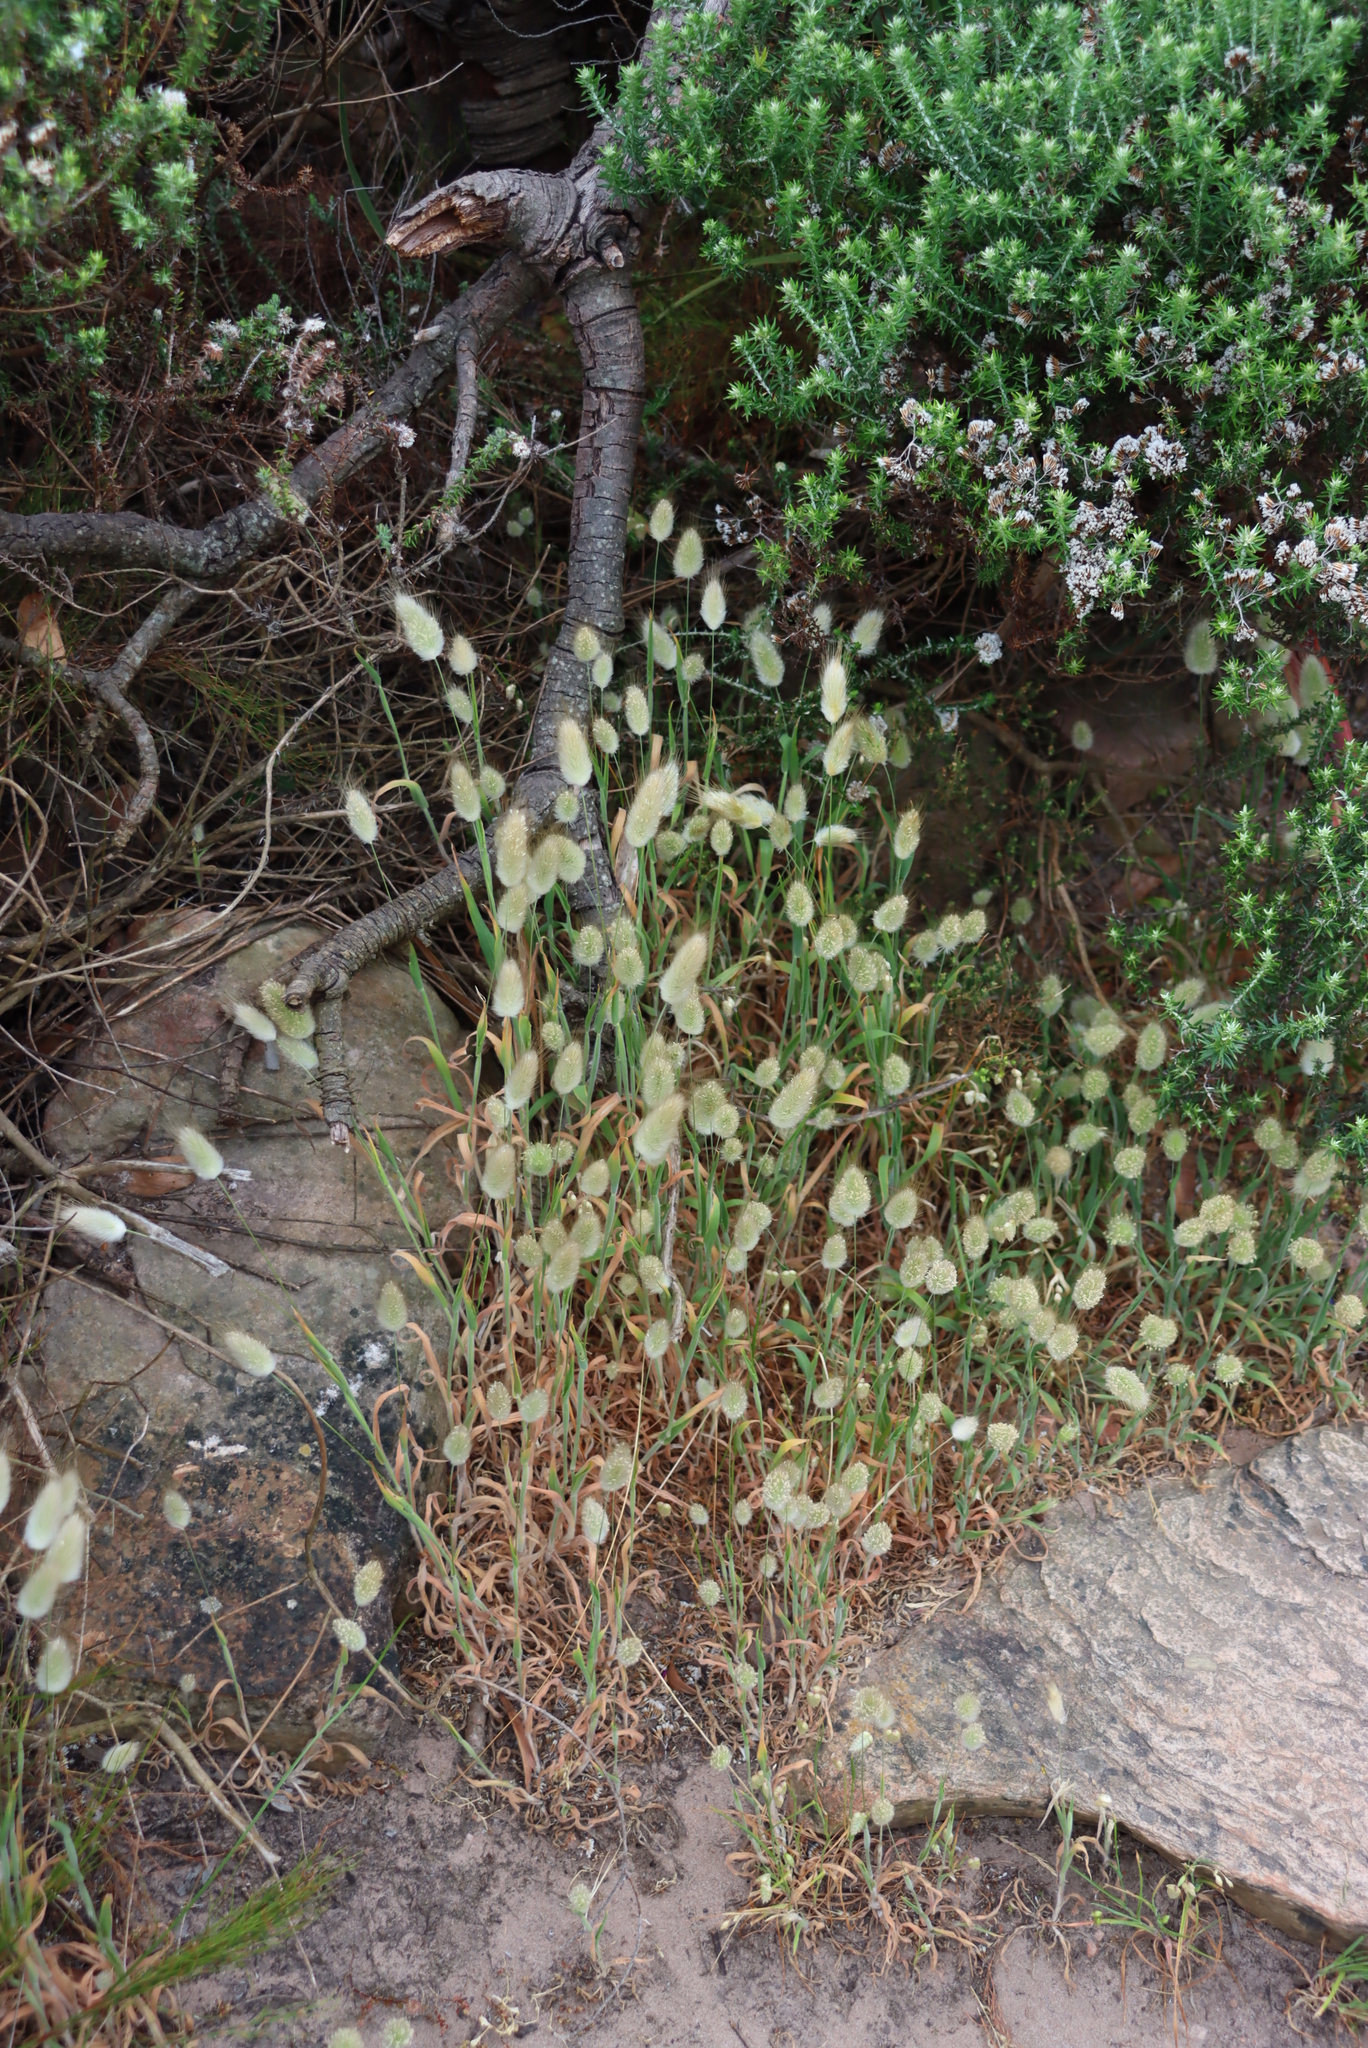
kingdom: Plantae
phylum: Tracheophyta
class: Liliopsida
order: Poales
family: Poaceae
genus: Lagurus
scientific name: Lagurus ovatus
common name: Hare's-tail
